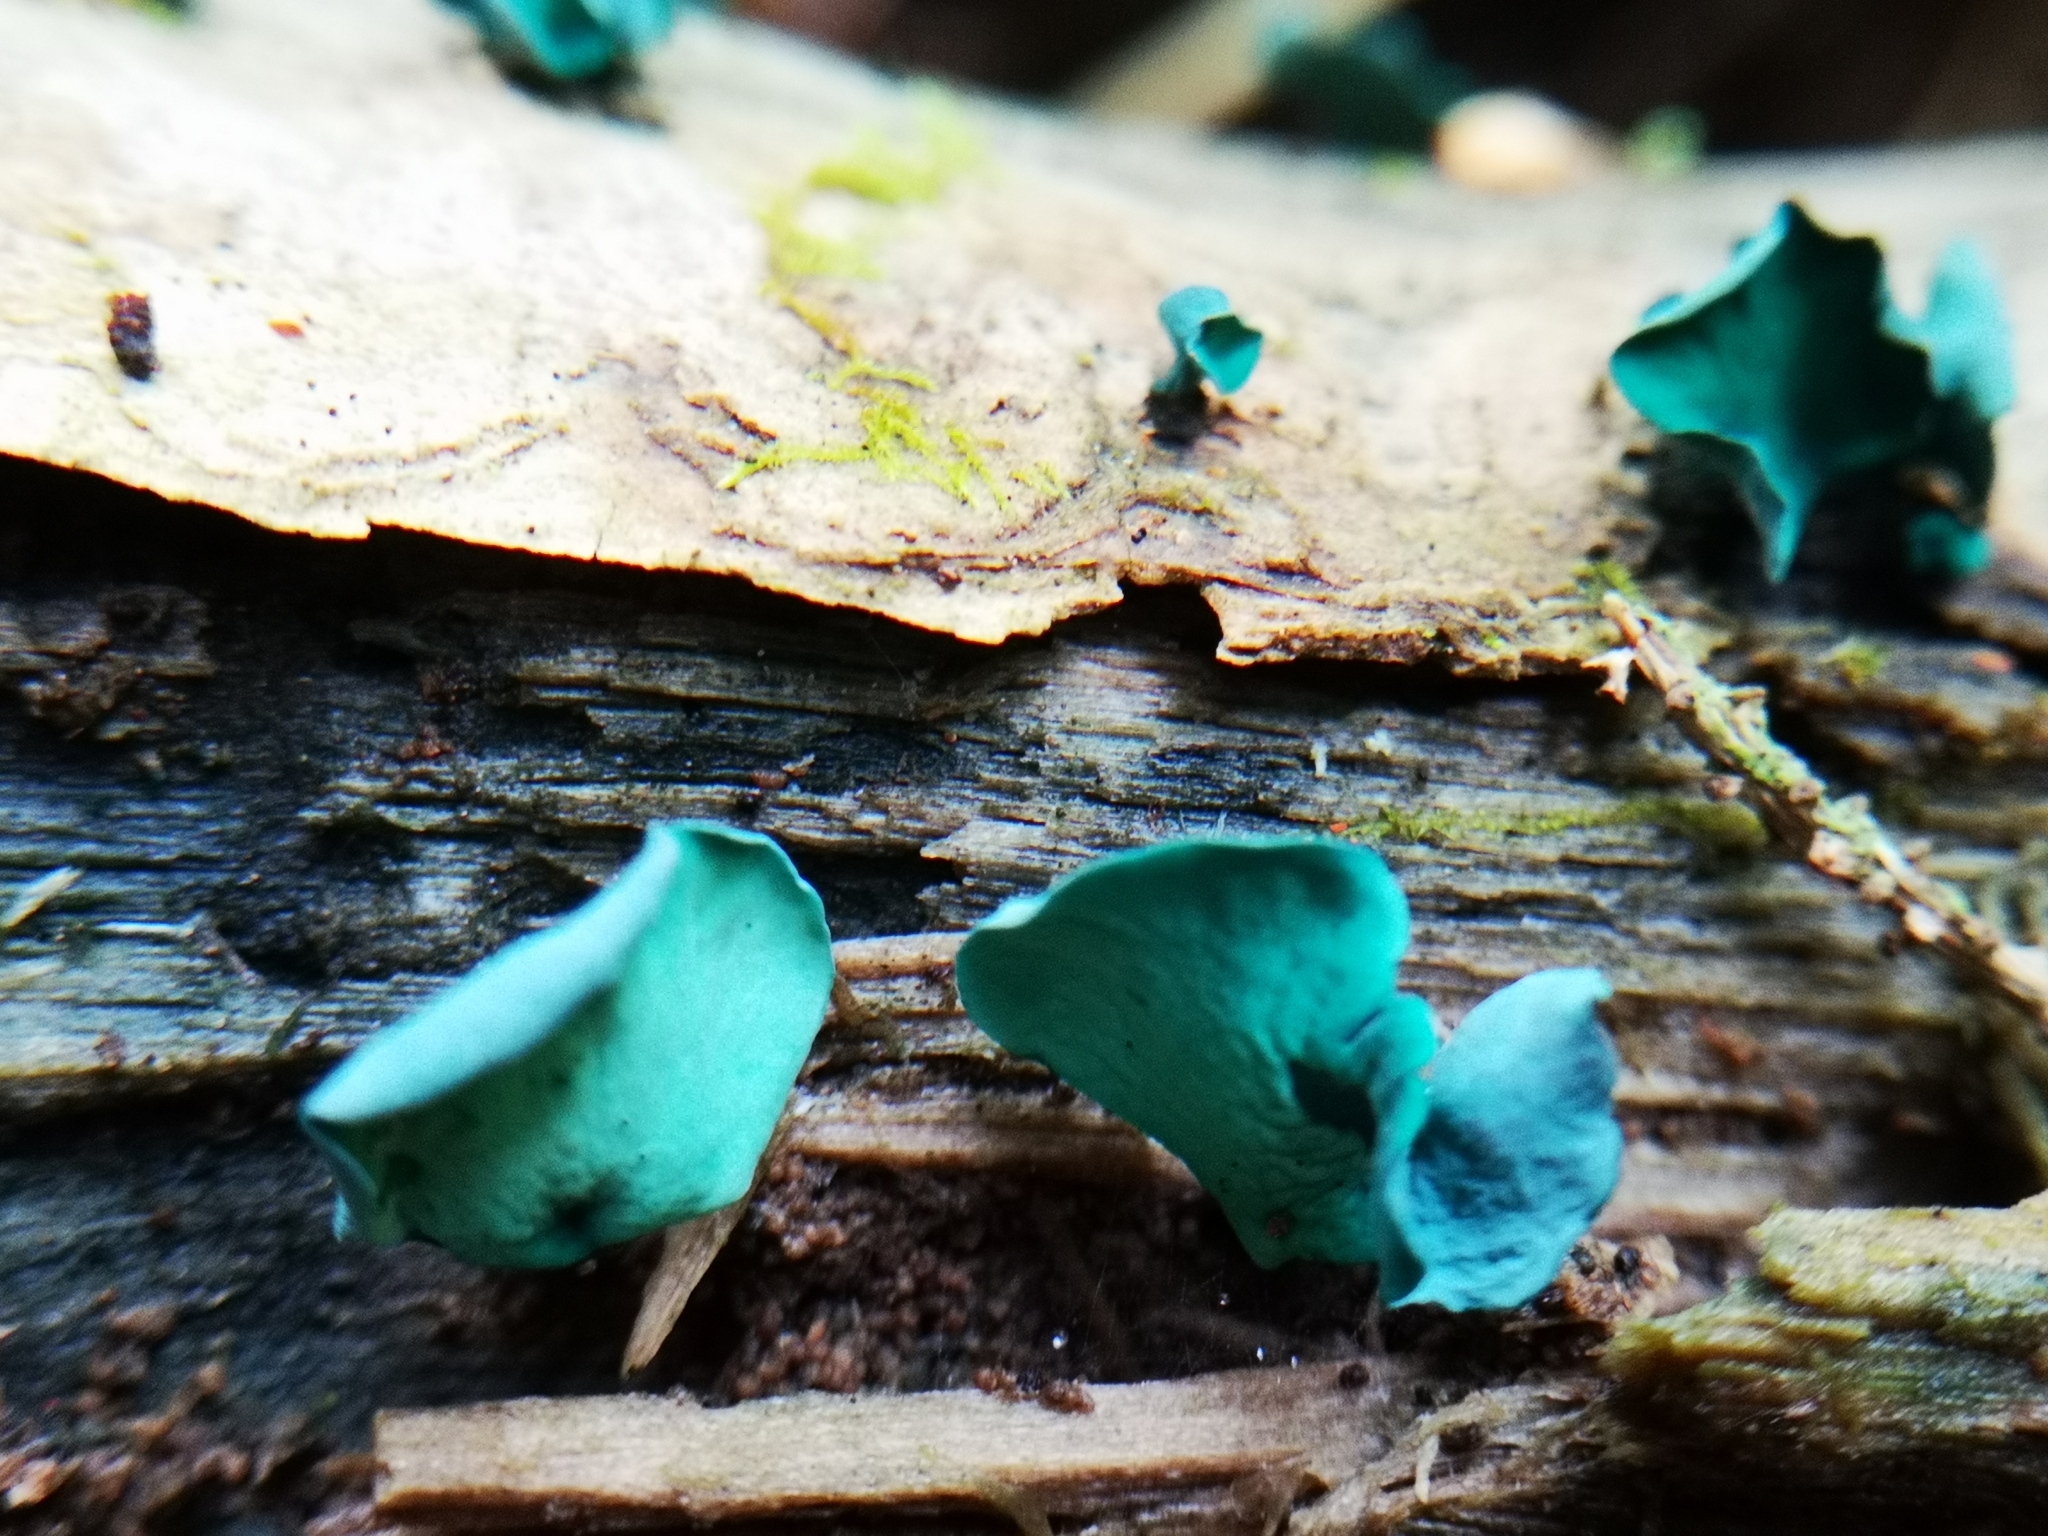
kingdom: Fungi
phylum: Ascomycota
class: Leotiomycetes
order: Helotiales
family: Chlorociboriaceae
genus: Chlorociboria
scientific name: Chlorociboria aeruginascens
